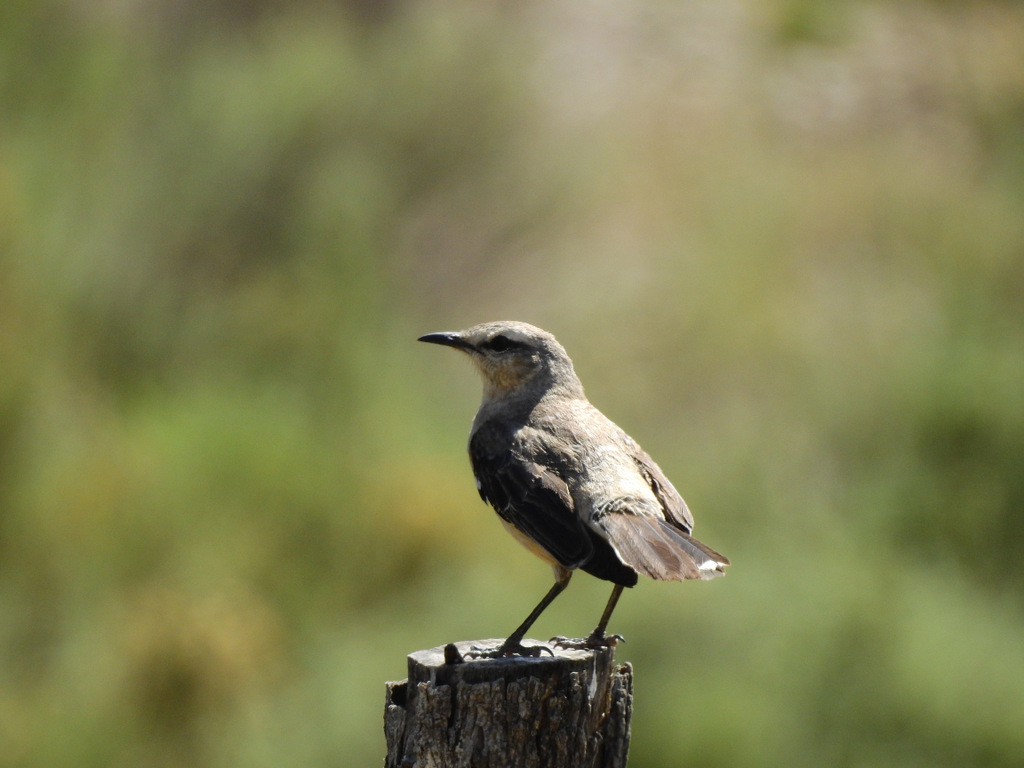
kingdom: Animalia
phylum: Chordata
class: Aves
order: Passeriformes
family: Mimidae
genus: Mimus
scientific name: Mimus saturninus
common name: Chalk-browed mockingbird
